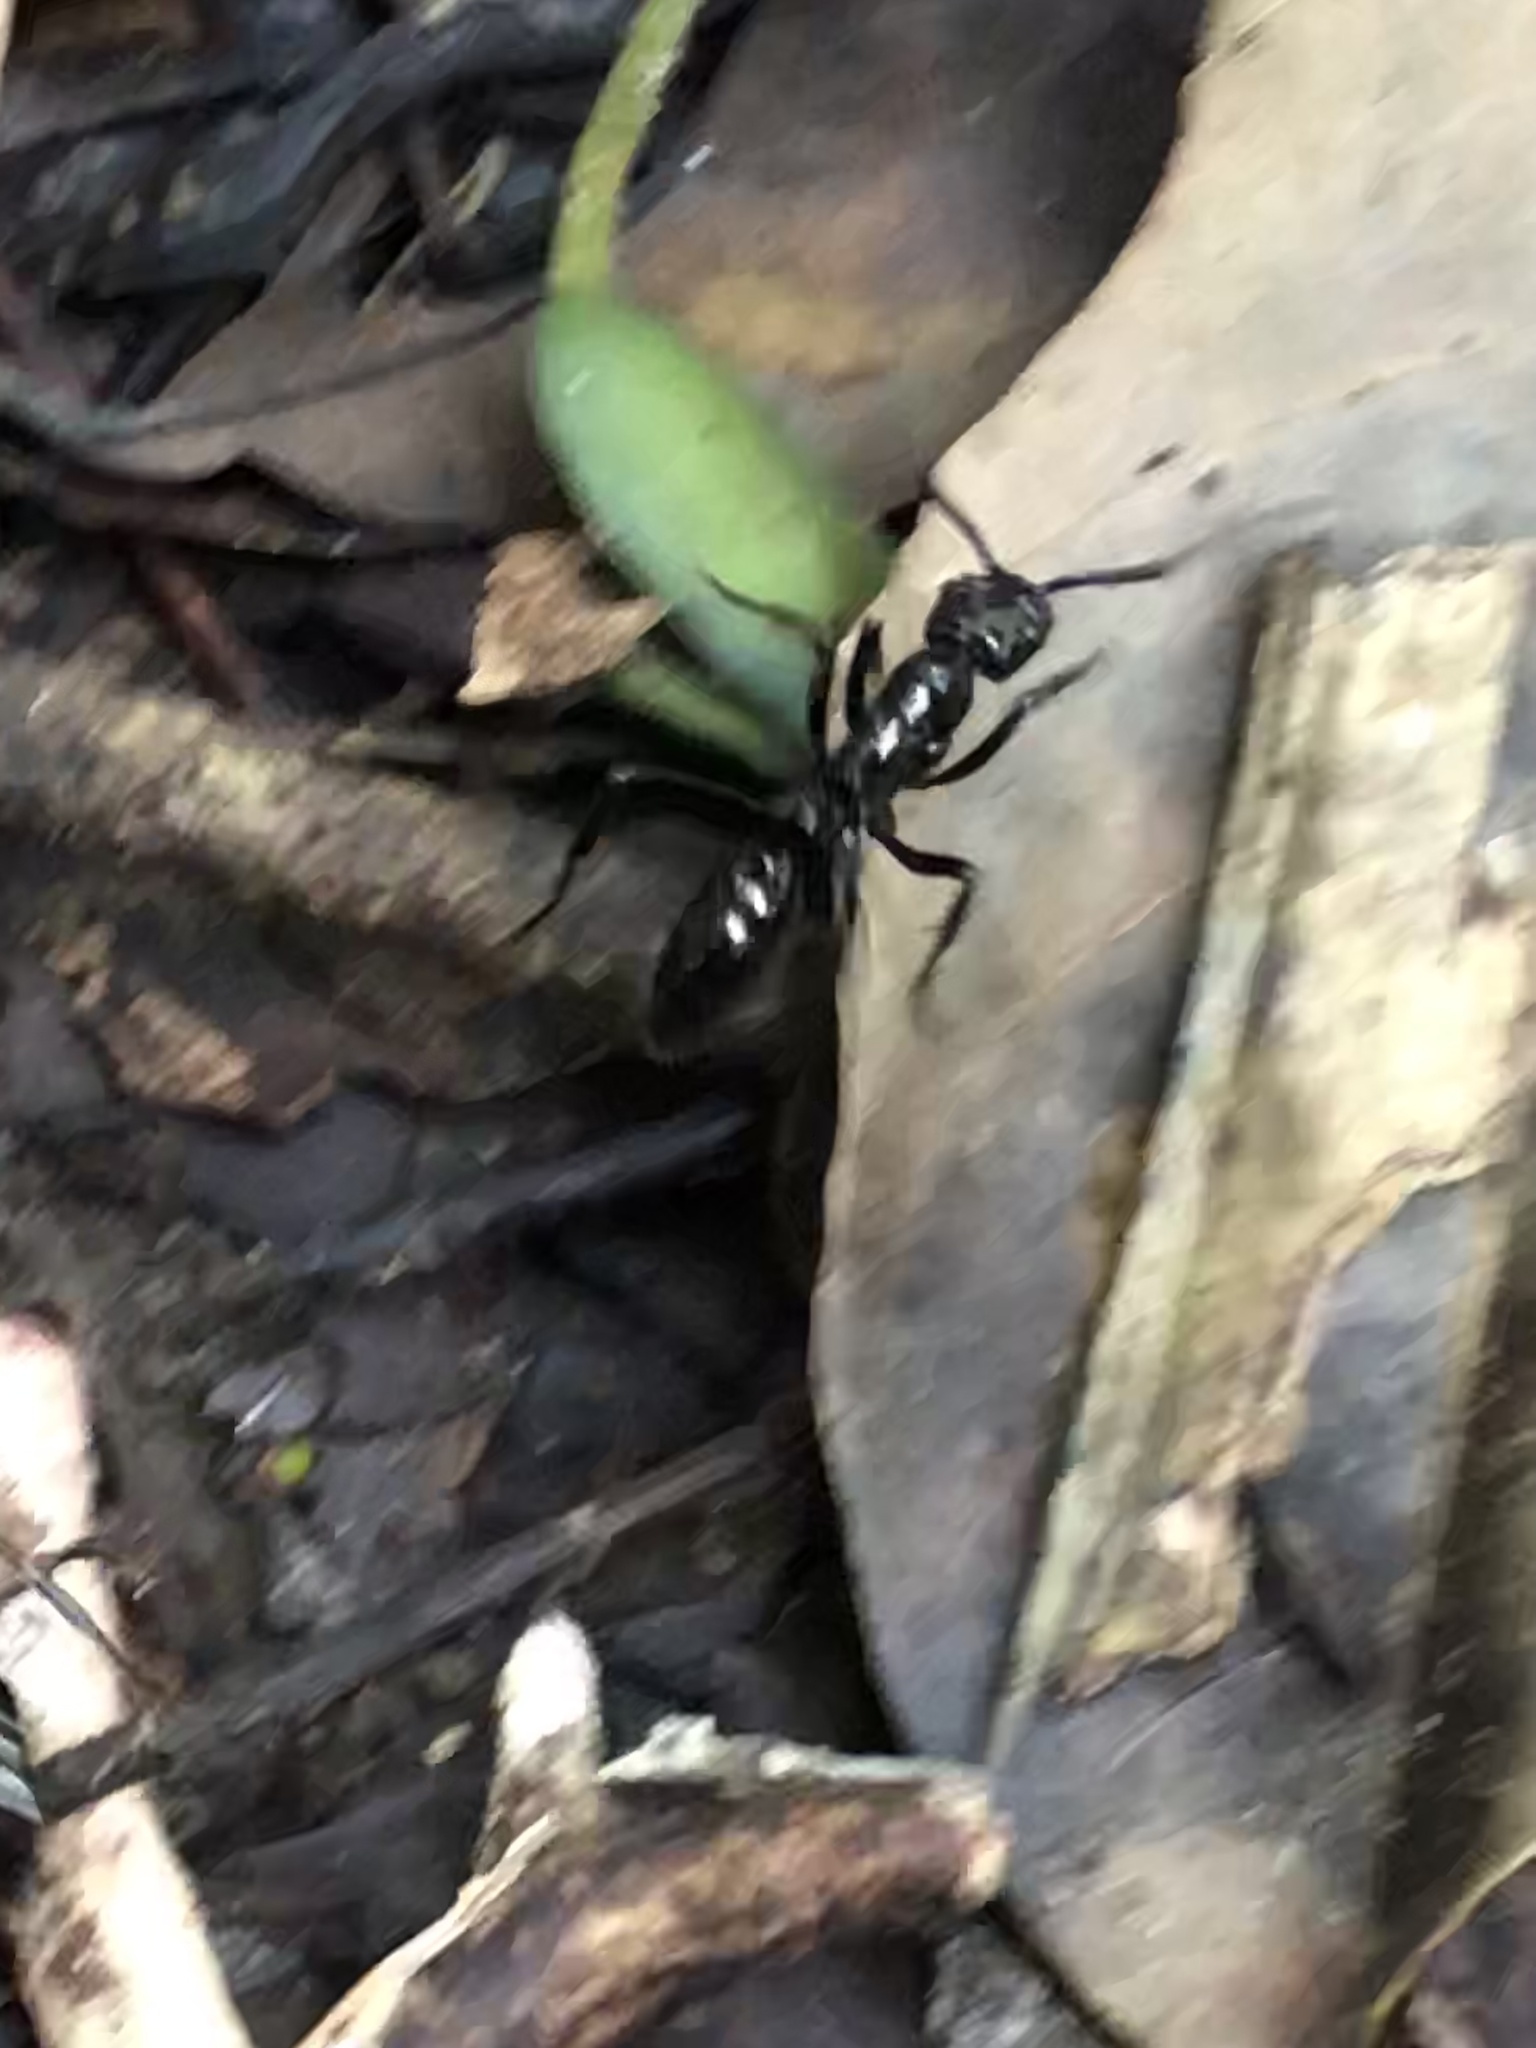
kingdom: Animalia
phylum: Arthropoda
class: Insecta
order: Hymenoptera
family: Formicidae
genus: Pachycondyla
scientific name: Pachycondyla commutata
